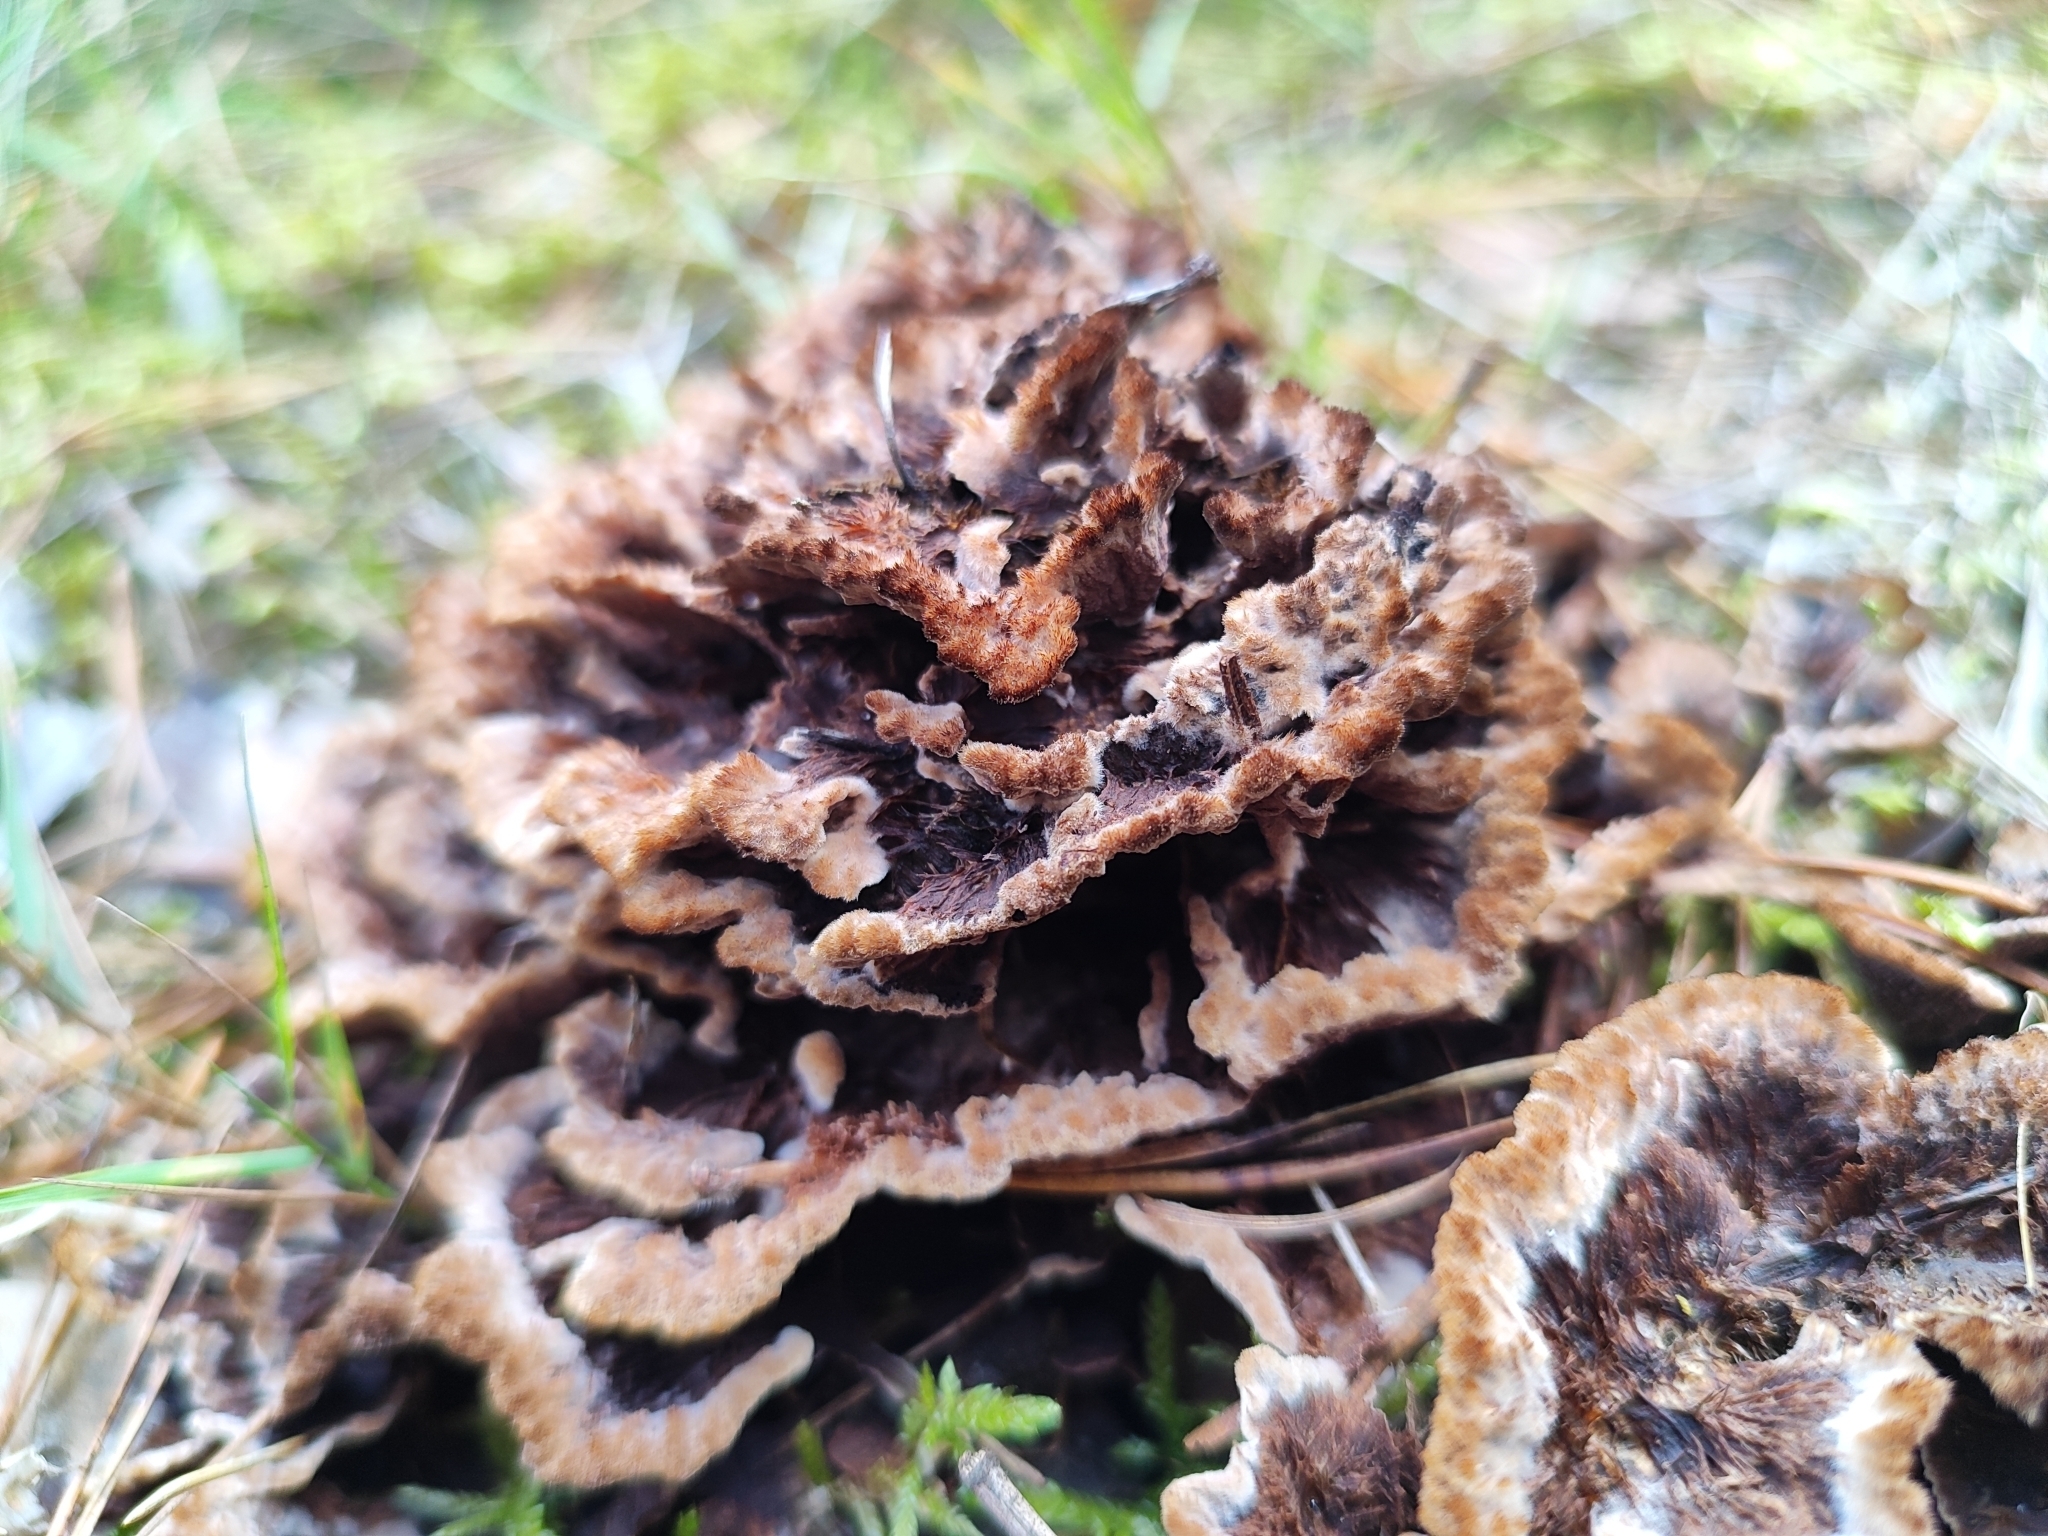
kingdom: Fungi
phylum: Basidiomycota
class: Agaricomycetes
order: Thelephorales
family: Thelephoraceae
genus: Thelephora
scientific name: Thelephora terrestris
